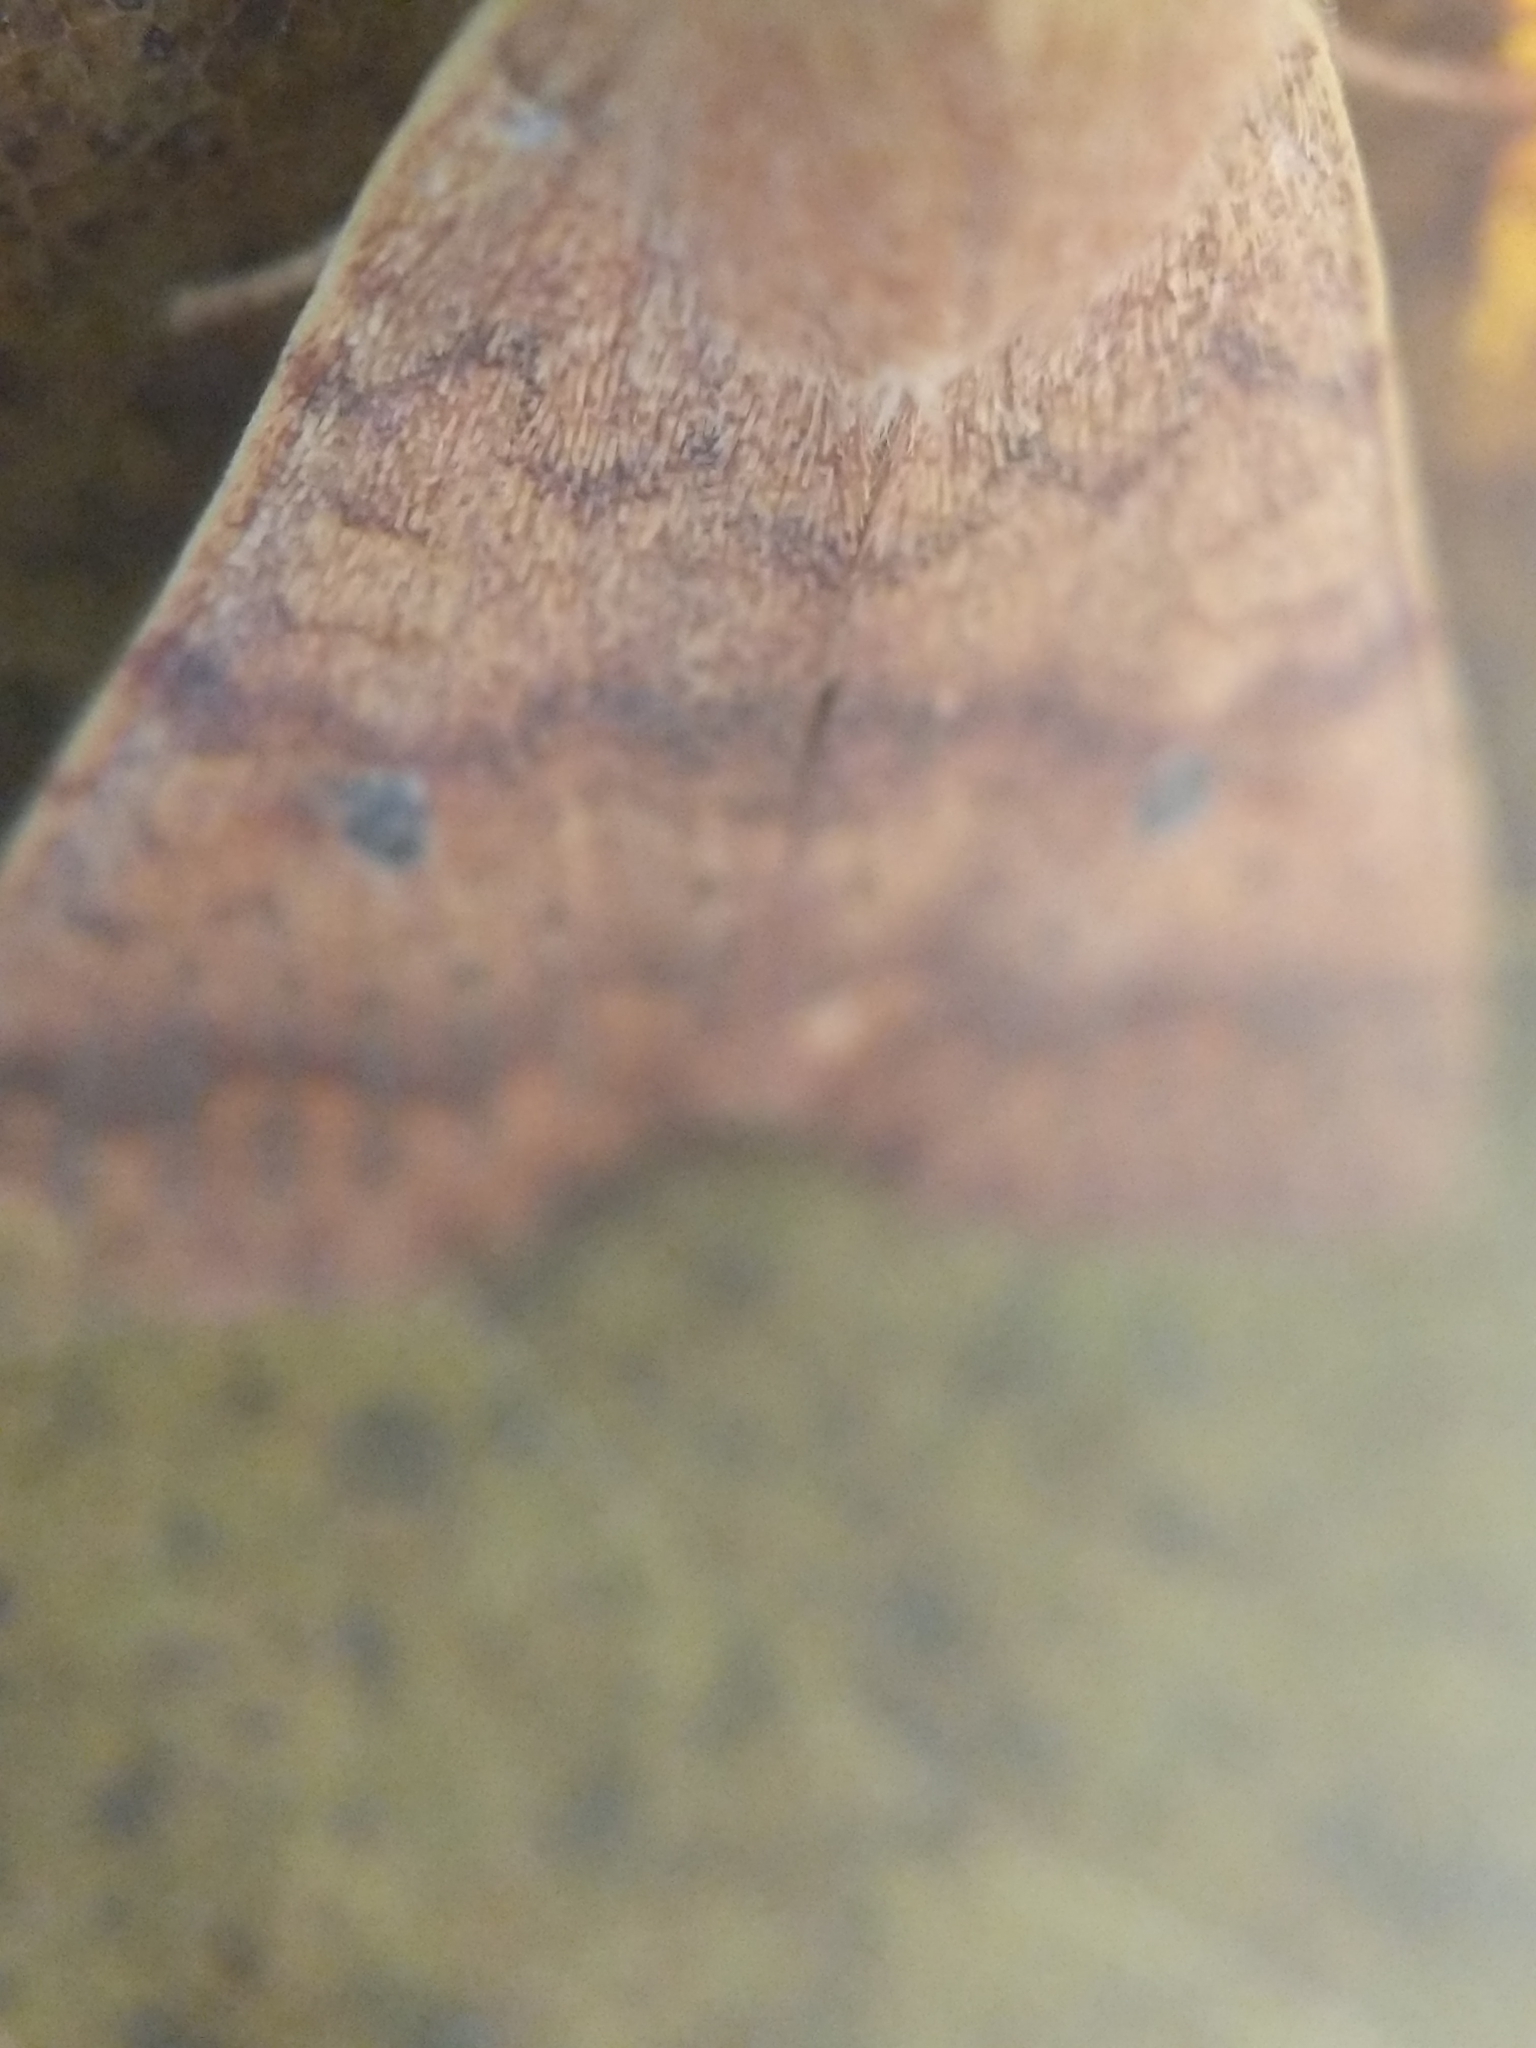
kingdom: Animalia
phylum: Arthropoda
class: Insecta
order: Lepidoptera
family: Noctuidae
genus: Agrochola
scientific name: Agrochola bicolorago
